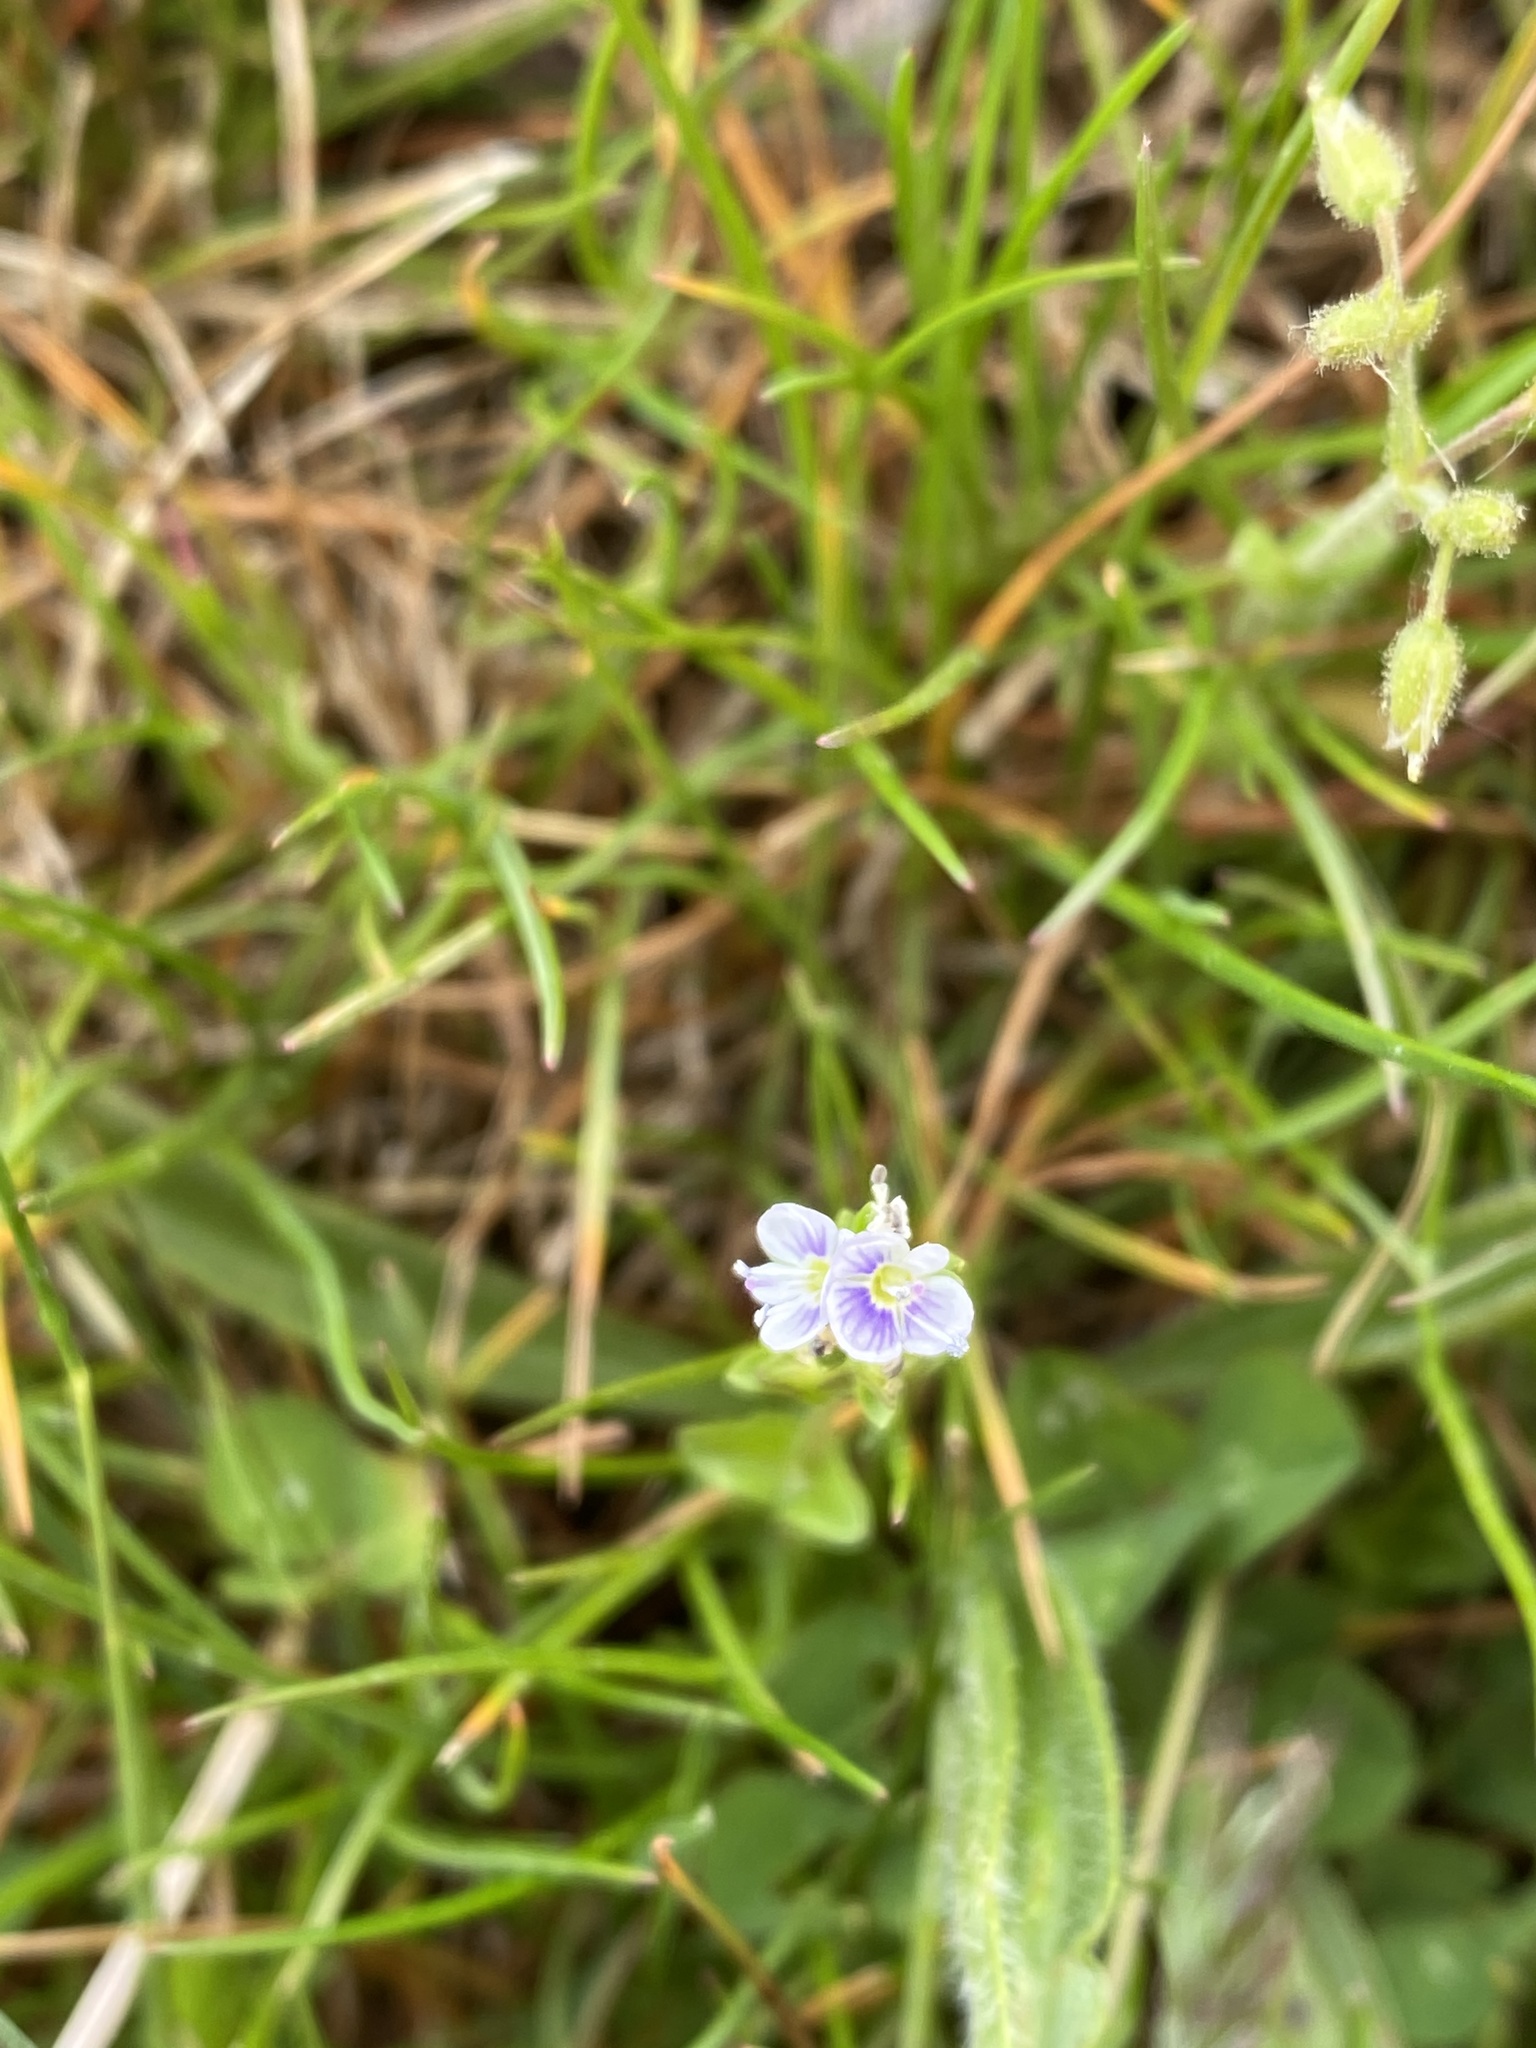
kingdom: Plantae
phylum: Tracheophyta
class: Magnoliopsida
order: Lamiales
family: Plantaginaceae
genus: Veronica
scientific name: Veronica serpyllifolia
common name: Thyme-leaved speedwell
